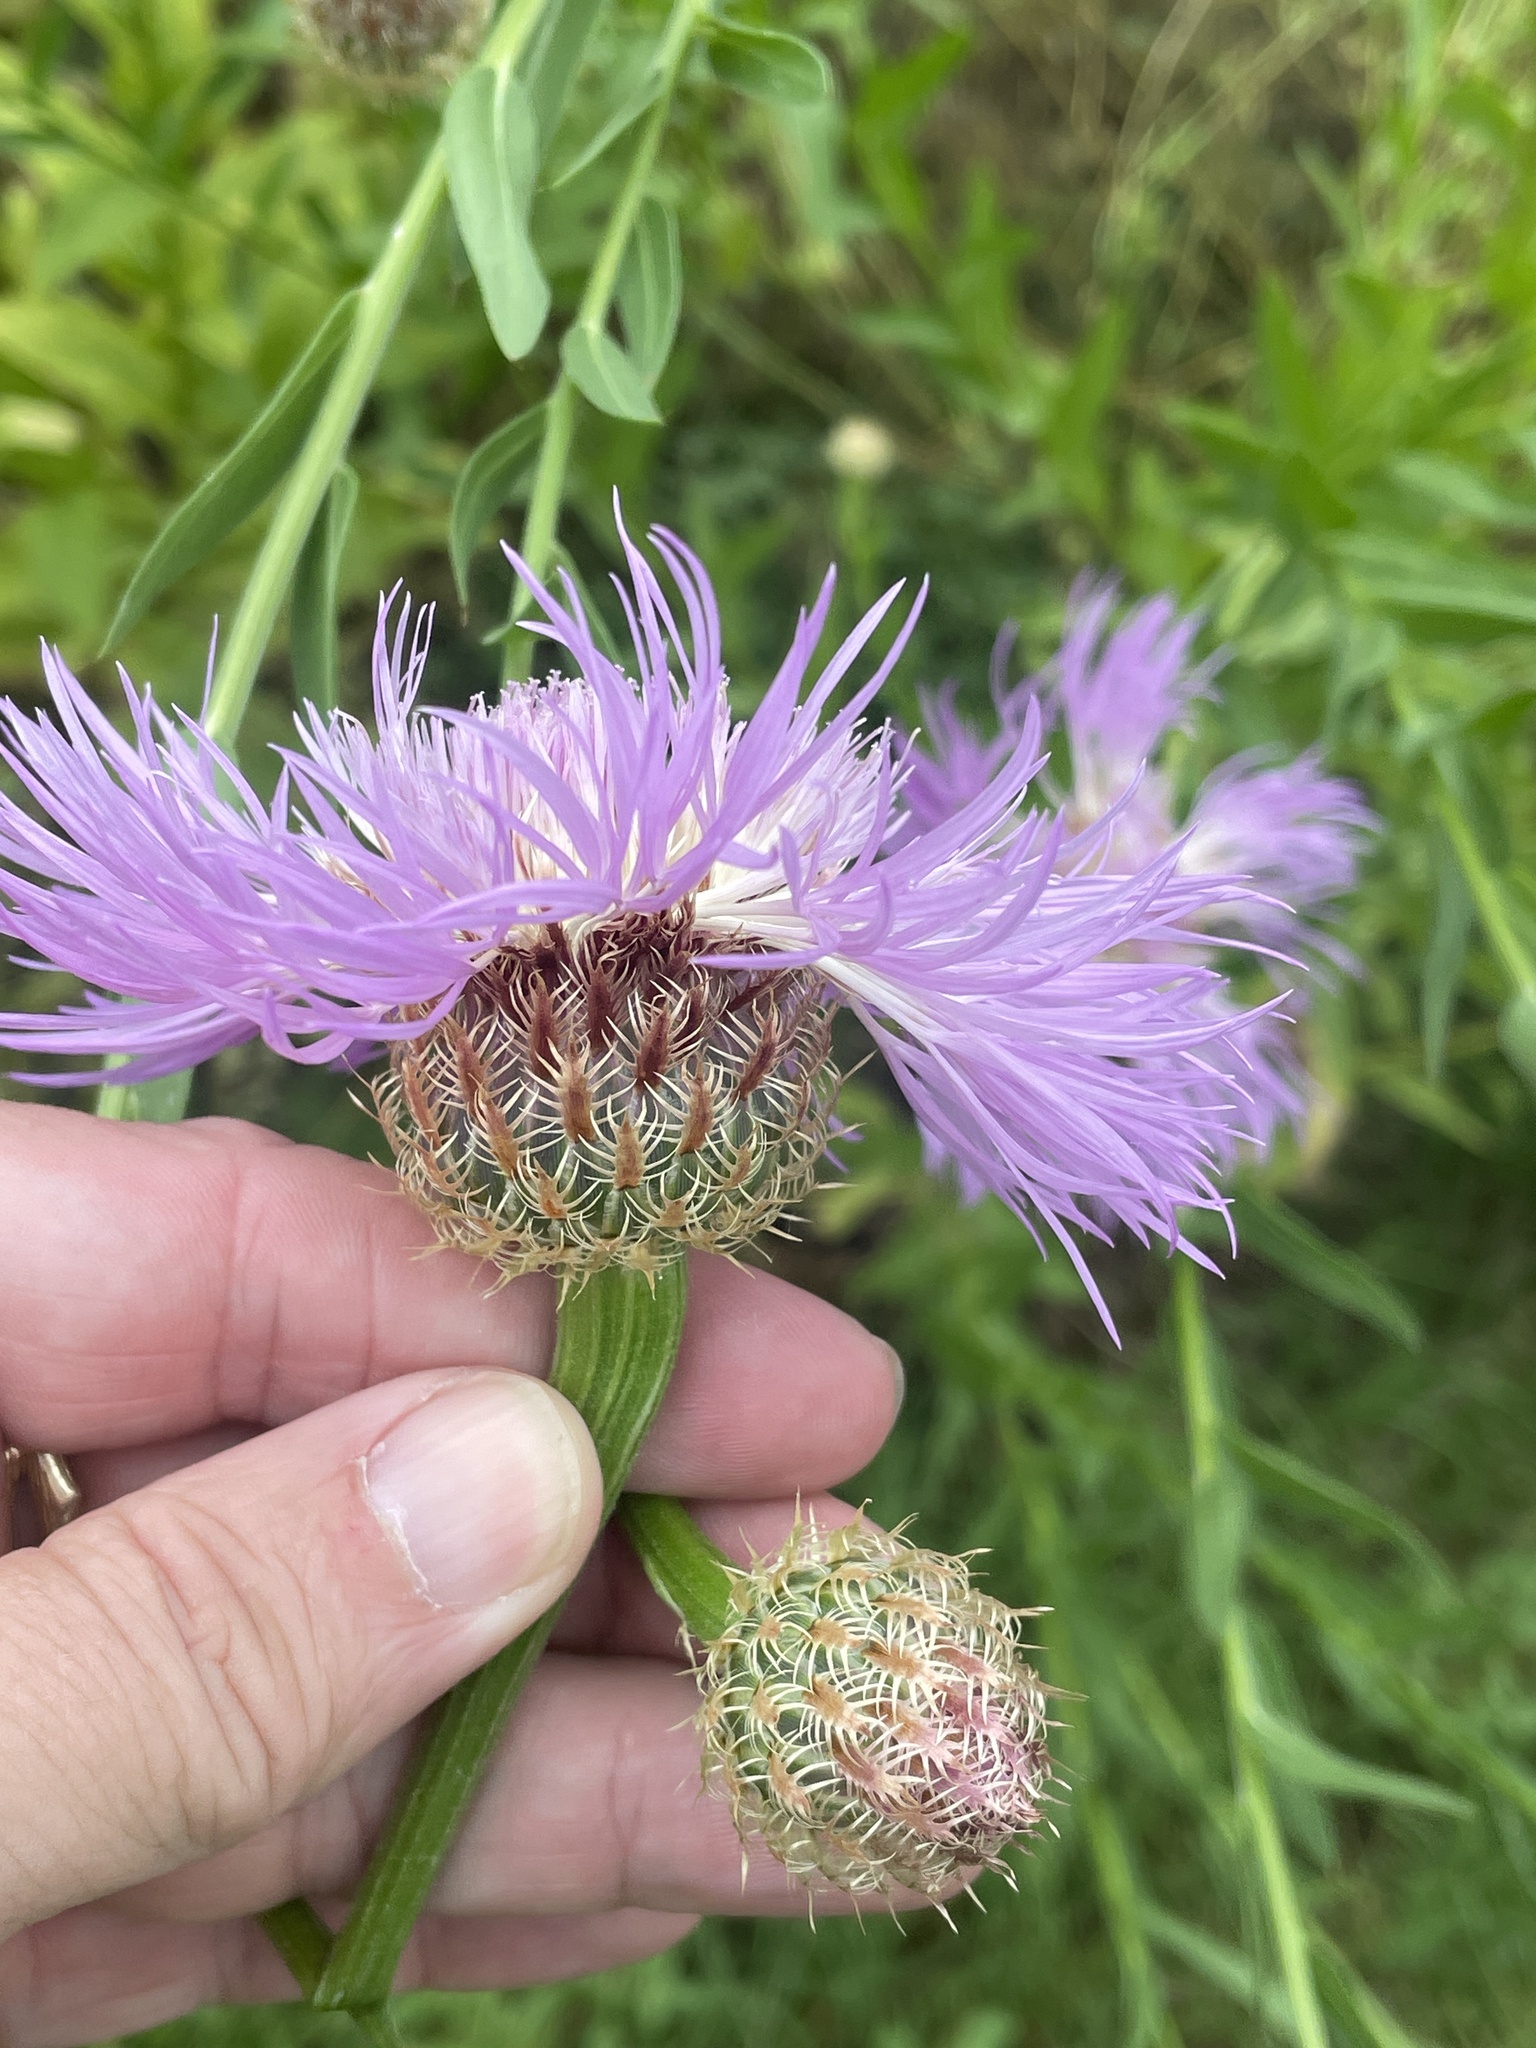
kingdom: Plantae
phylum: Tracheophyta
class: Magnoliopsida
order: Asterales
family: Asteraceae
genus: Plectocephalus
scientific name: Plectocephalus americanus
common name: American basket-flower
